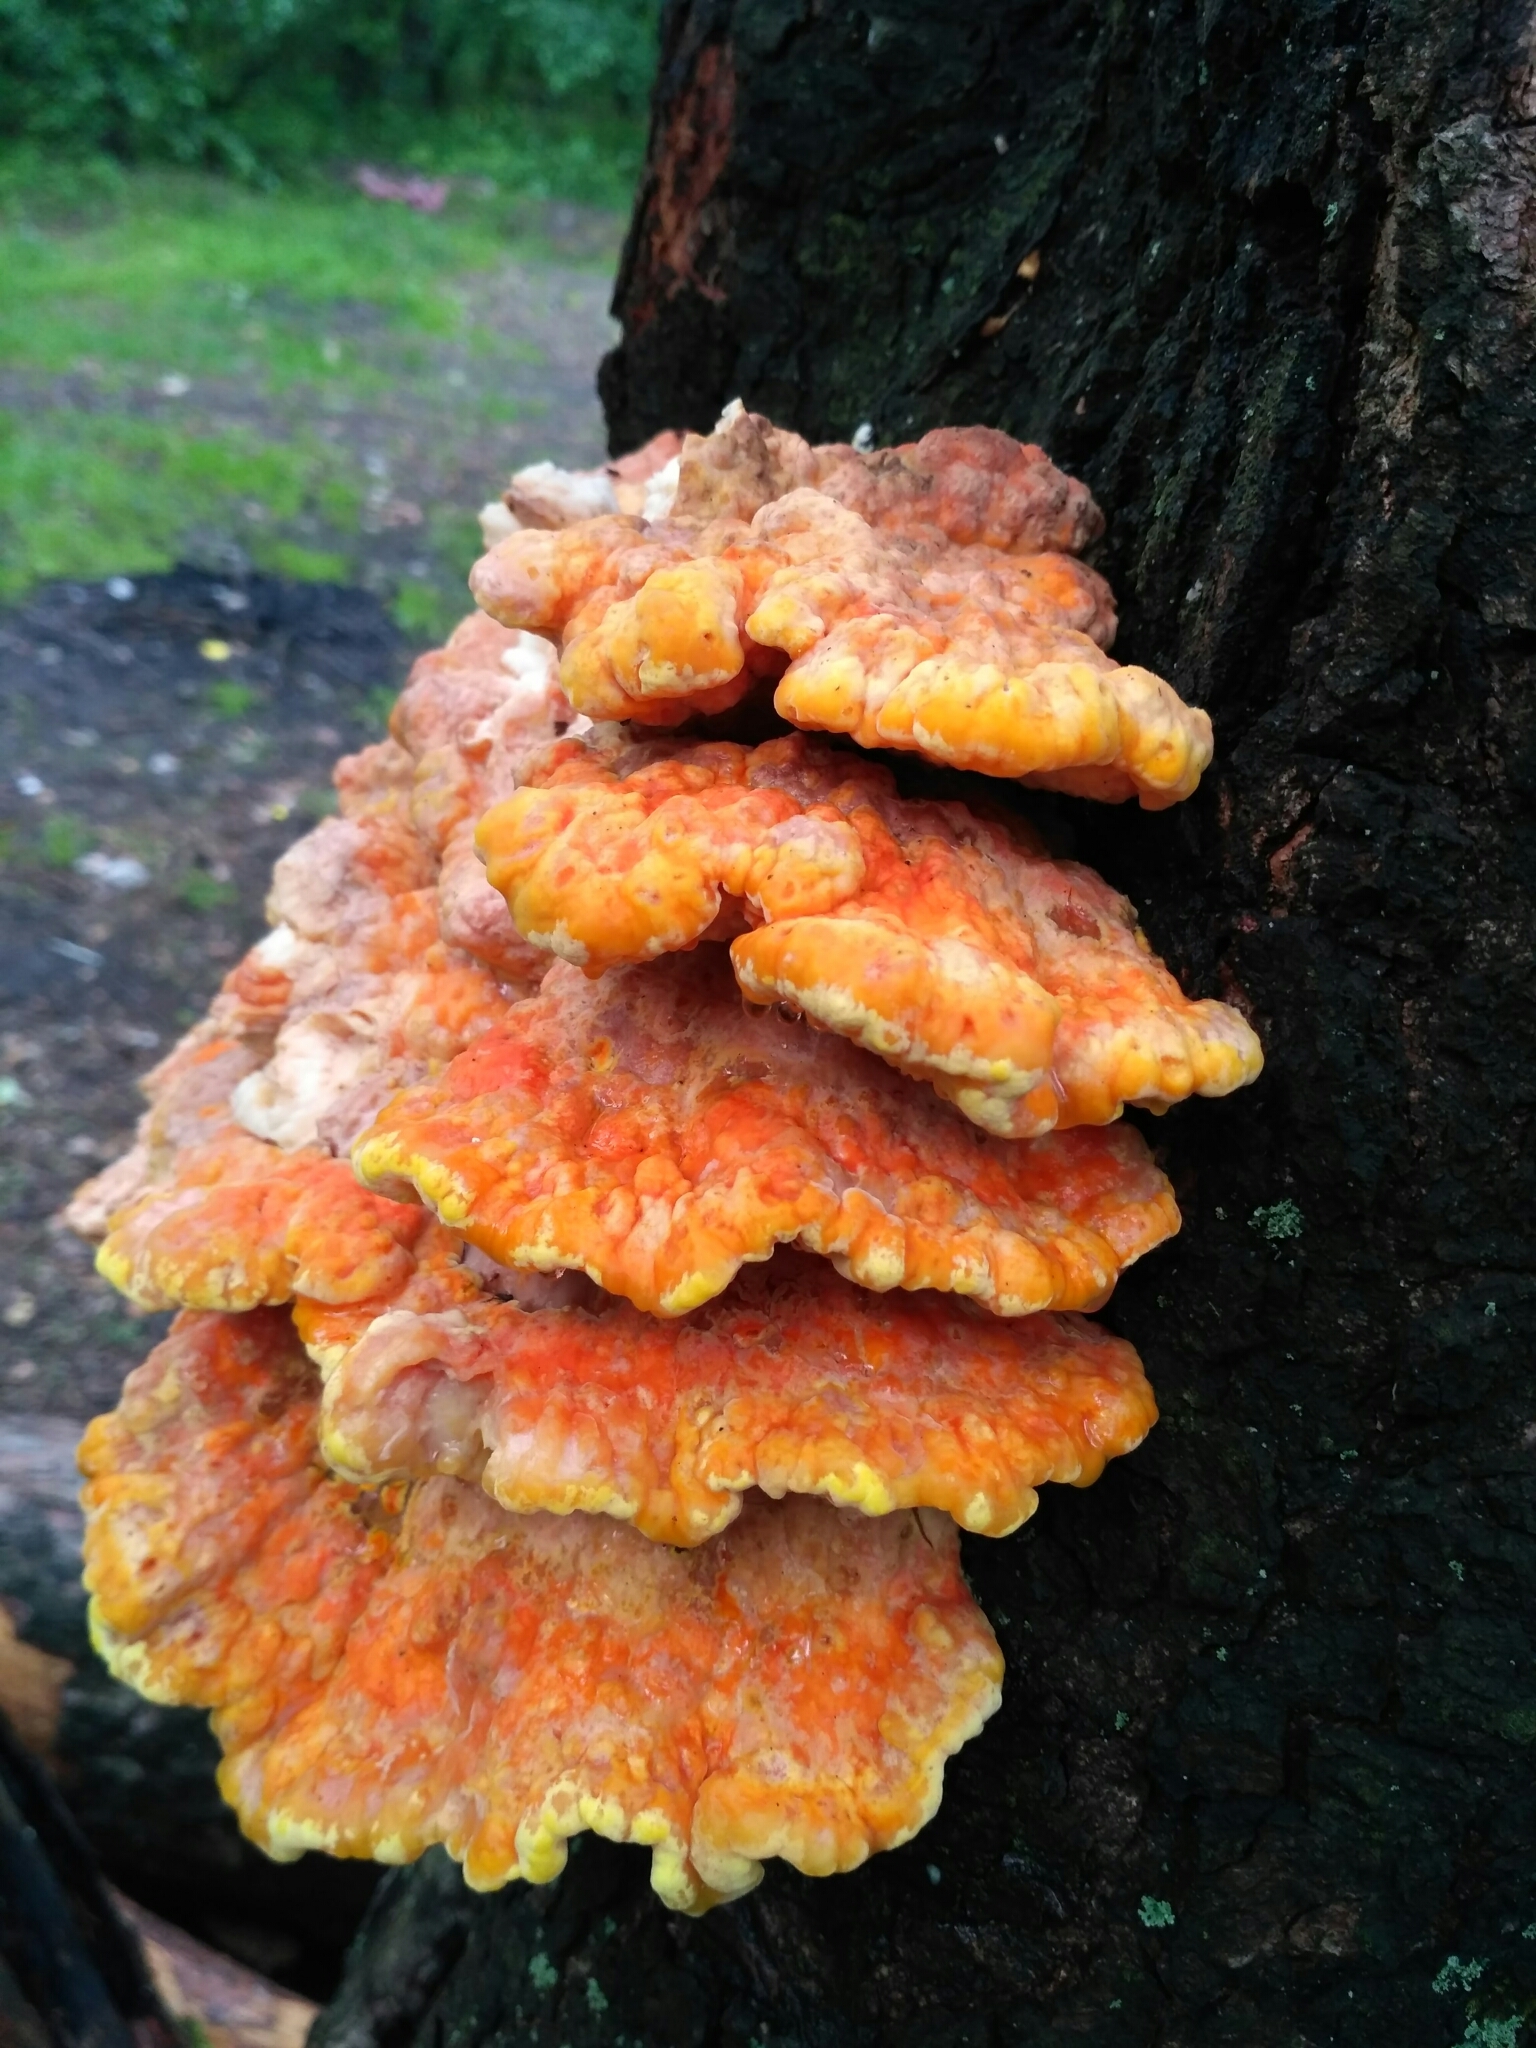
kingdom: Fungi
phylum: Basidiomycota
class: Agaricomycetes
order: Polyporales
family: Laetiporaceae
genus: Laetiporus
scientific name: Laetiporus sulphureus
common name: Chicken of the woods
